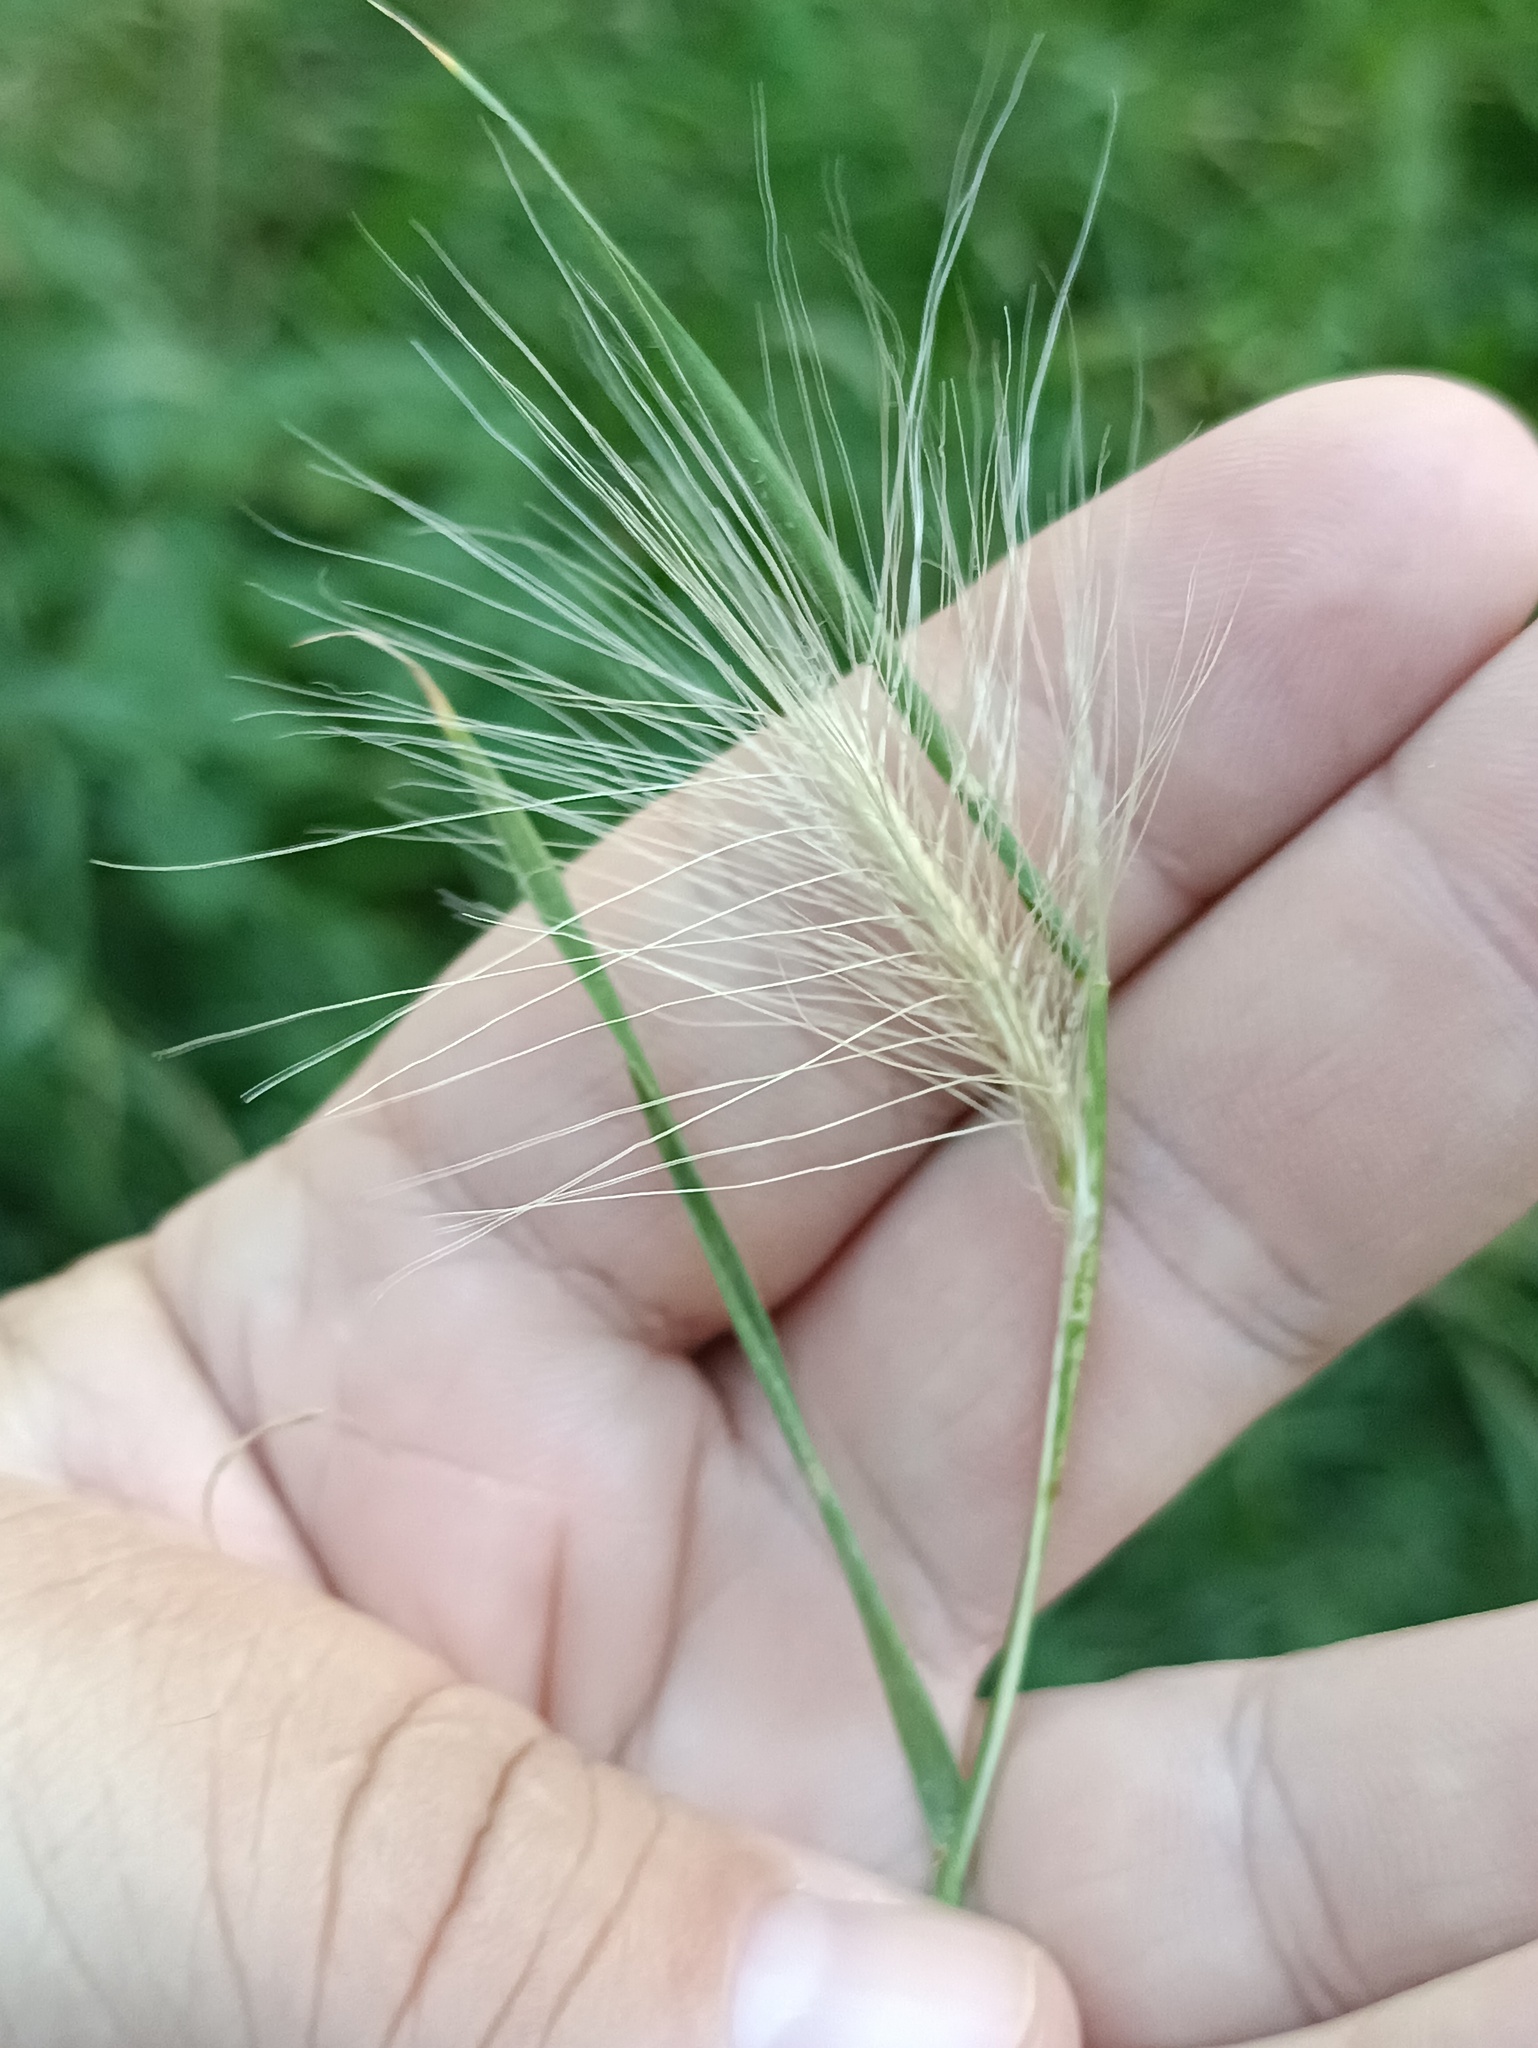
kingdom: Plantae
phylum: Tracheophyta
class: Liliopsida
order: Poales
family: Poaceae
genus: Hordeum
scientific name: Hordeum jubatum
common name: Foxtail barley
